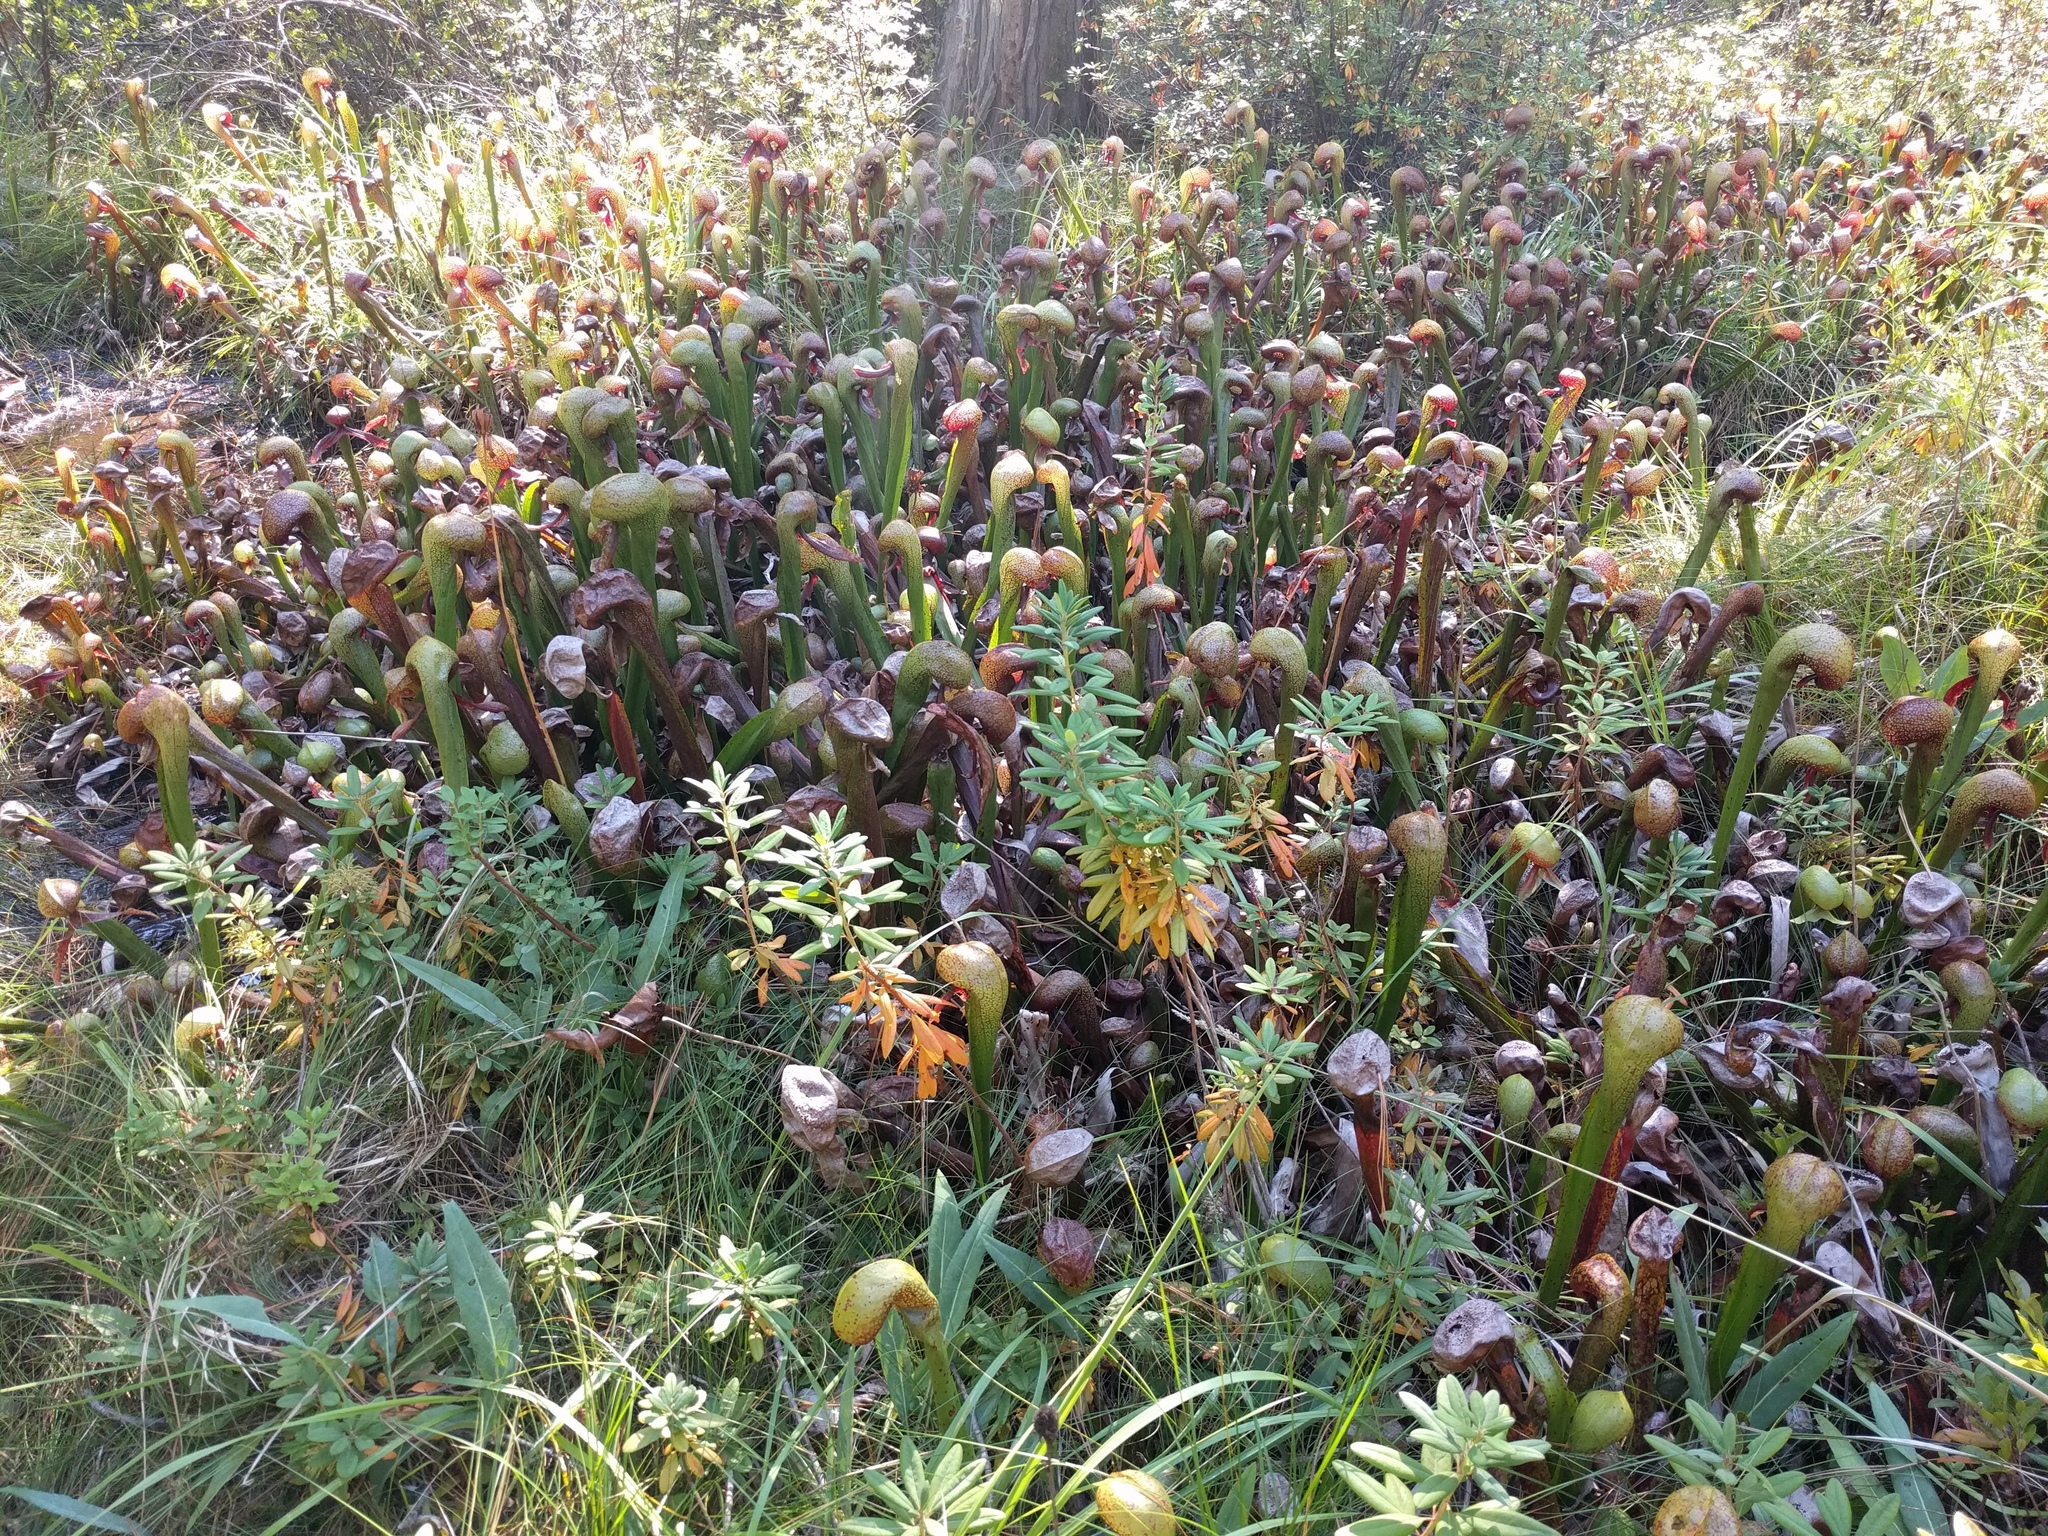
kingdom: Plantae
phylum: Tracheophyta
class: Magnoliopsida
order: Ericales
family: Sarraceniaceae
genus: Darlingtonia
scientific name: Darlingtonia californica
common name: California pitcher plant
